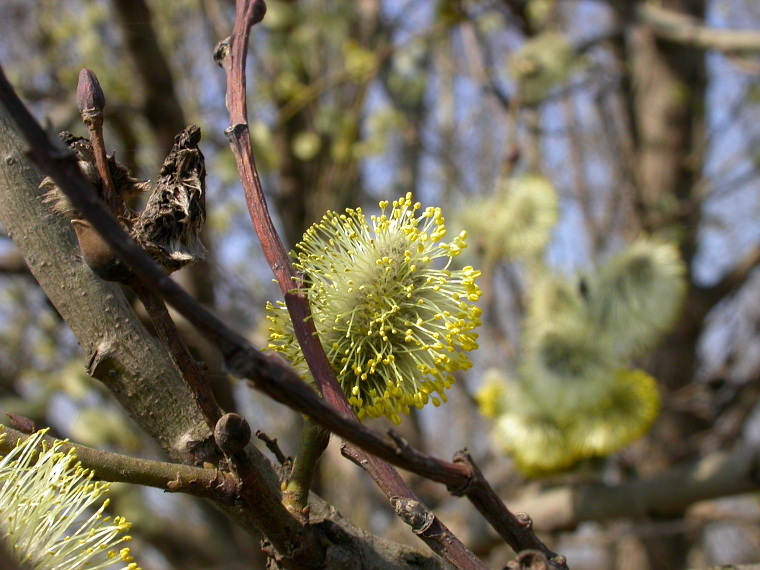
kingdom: Plantae
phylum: Tracheophyta
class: Magnoliopsida
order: Malpighiales
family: Salicaceae
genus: Salix
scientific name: Salix caprea
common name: Goat willow
